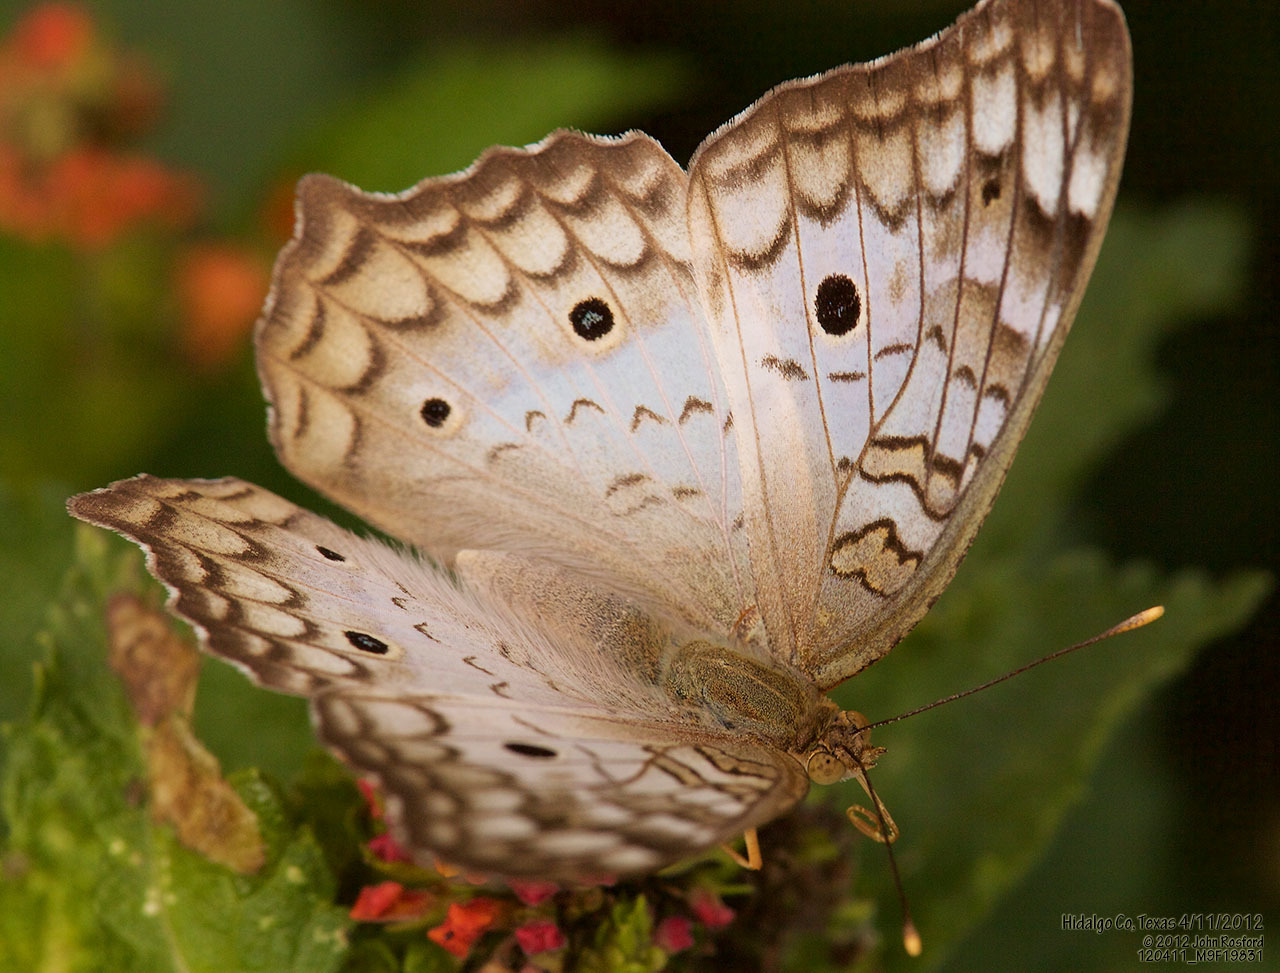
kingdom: Animalia
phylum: Arthropoda
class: Insecta
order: Lepidoptera
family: Nymphalidae
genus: Anartia
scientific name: Anartia jatrophae
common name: White peacock
